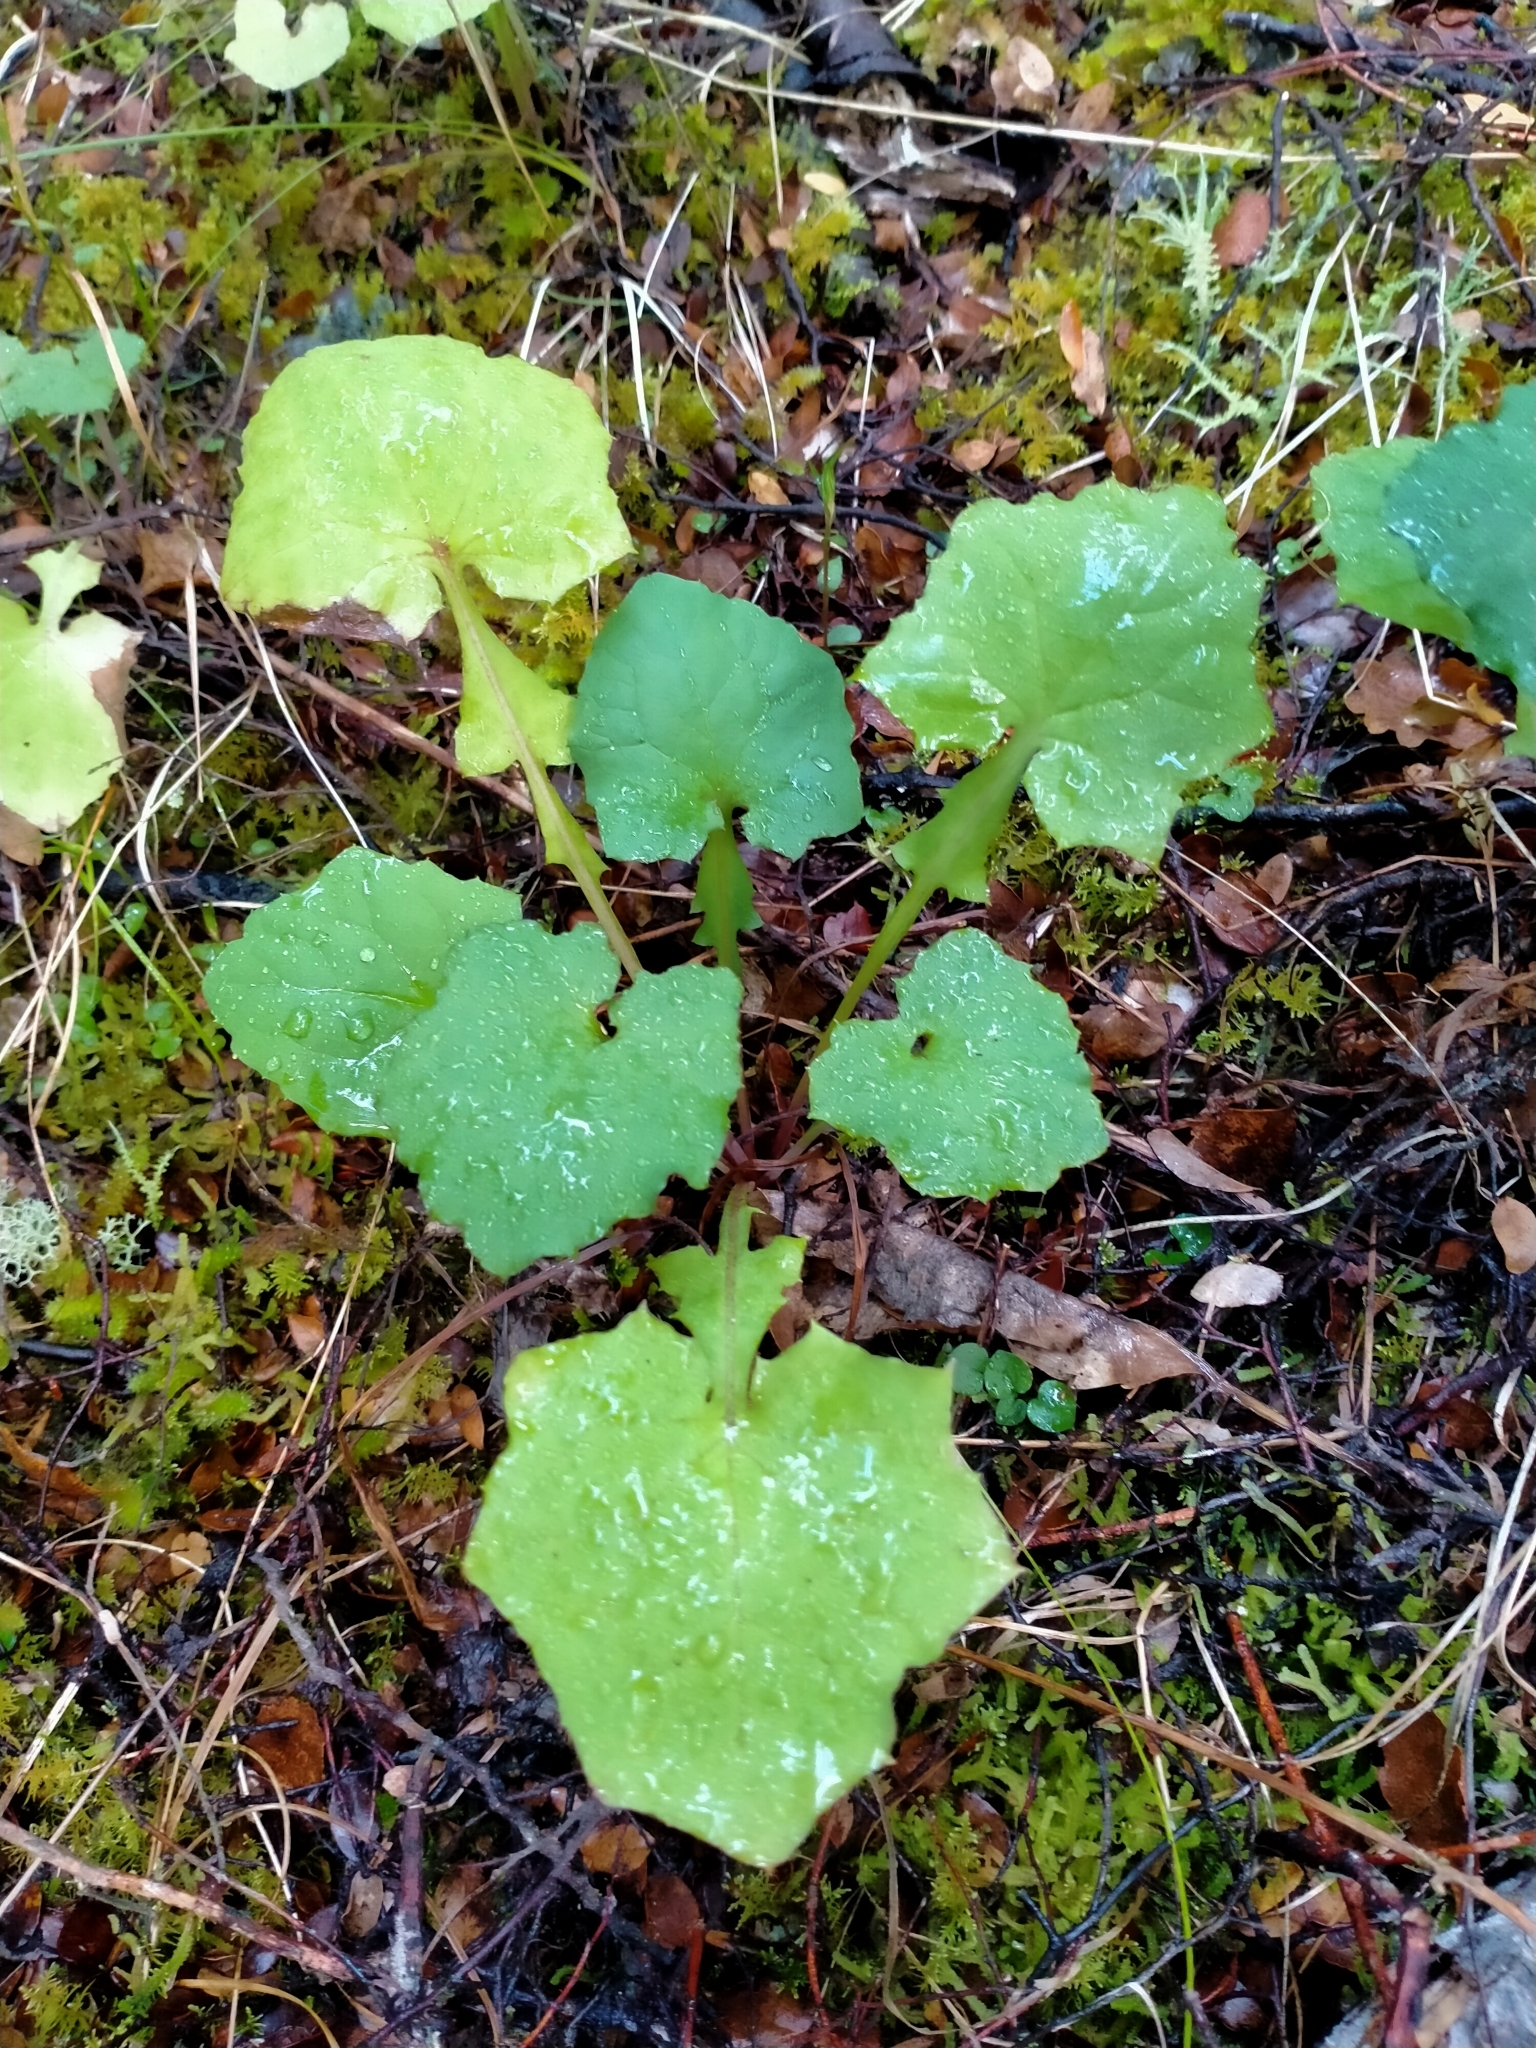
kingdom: Plantae
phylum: Tracheophyta
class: Magnoliopsida
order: Asterales
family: Asteraceae
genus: Mycelis
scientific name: Mycelis muralis
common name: Wall lettuce
